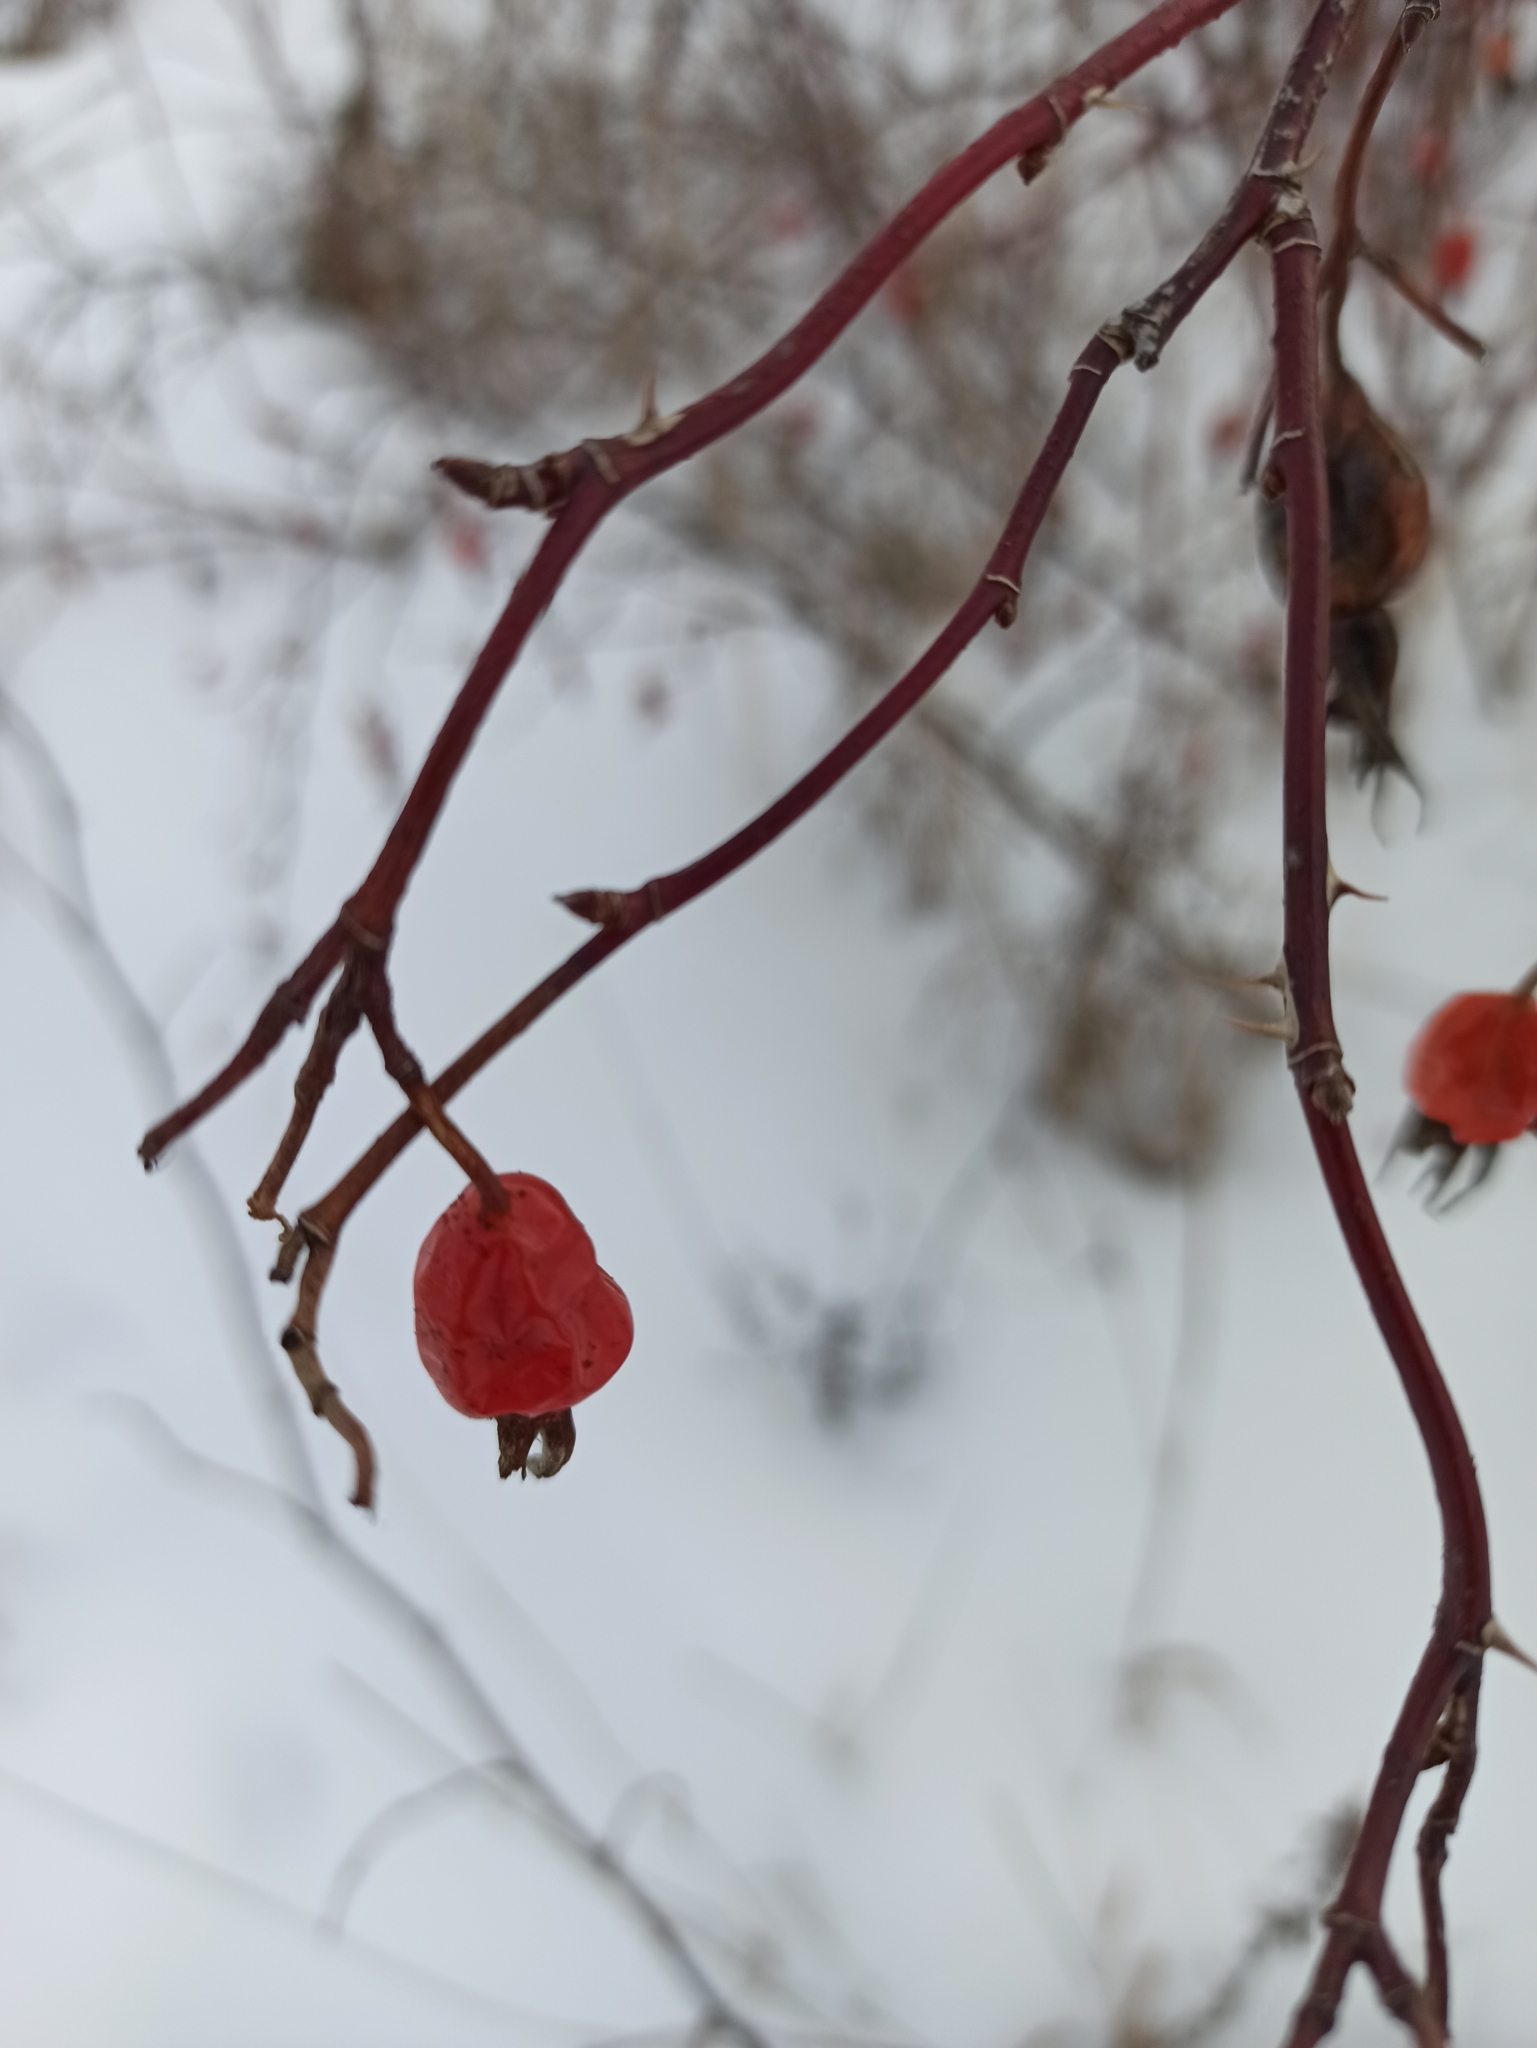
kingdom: Plantae
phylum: Tracheophyta
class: Magnoliopsida
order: Rosales
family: Rosaceae
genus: Rosa
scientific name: Rosa majalis
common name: Cinnamon rose
